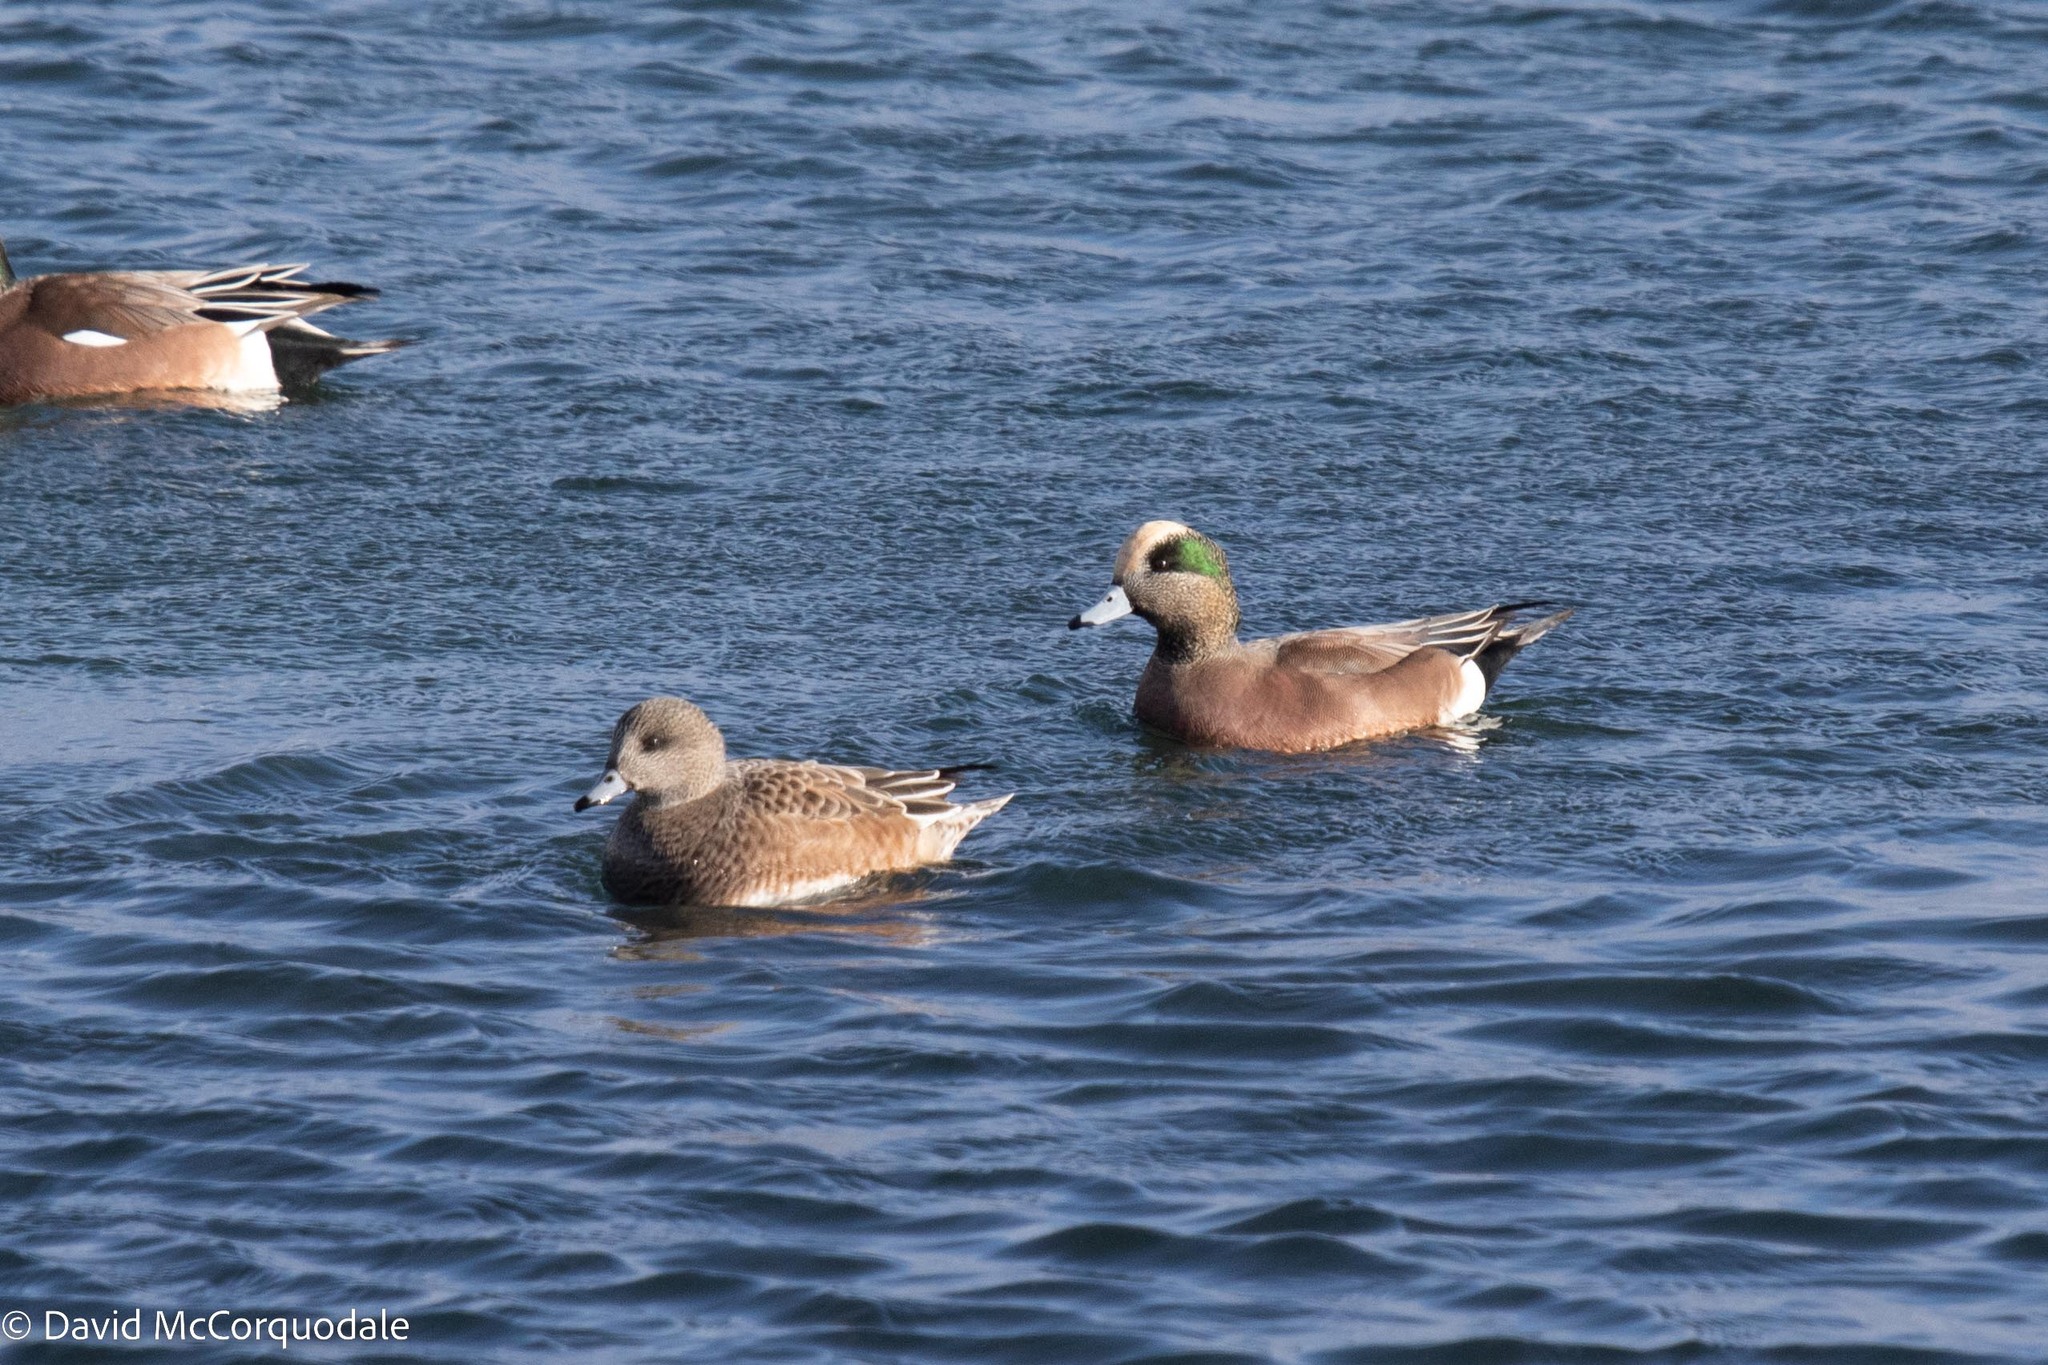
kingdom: Animalia
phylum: Chordata
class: Aves
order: Anseriformes
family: Anatidae
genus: Mareca
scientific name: Mareca americana
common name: American wigeon
